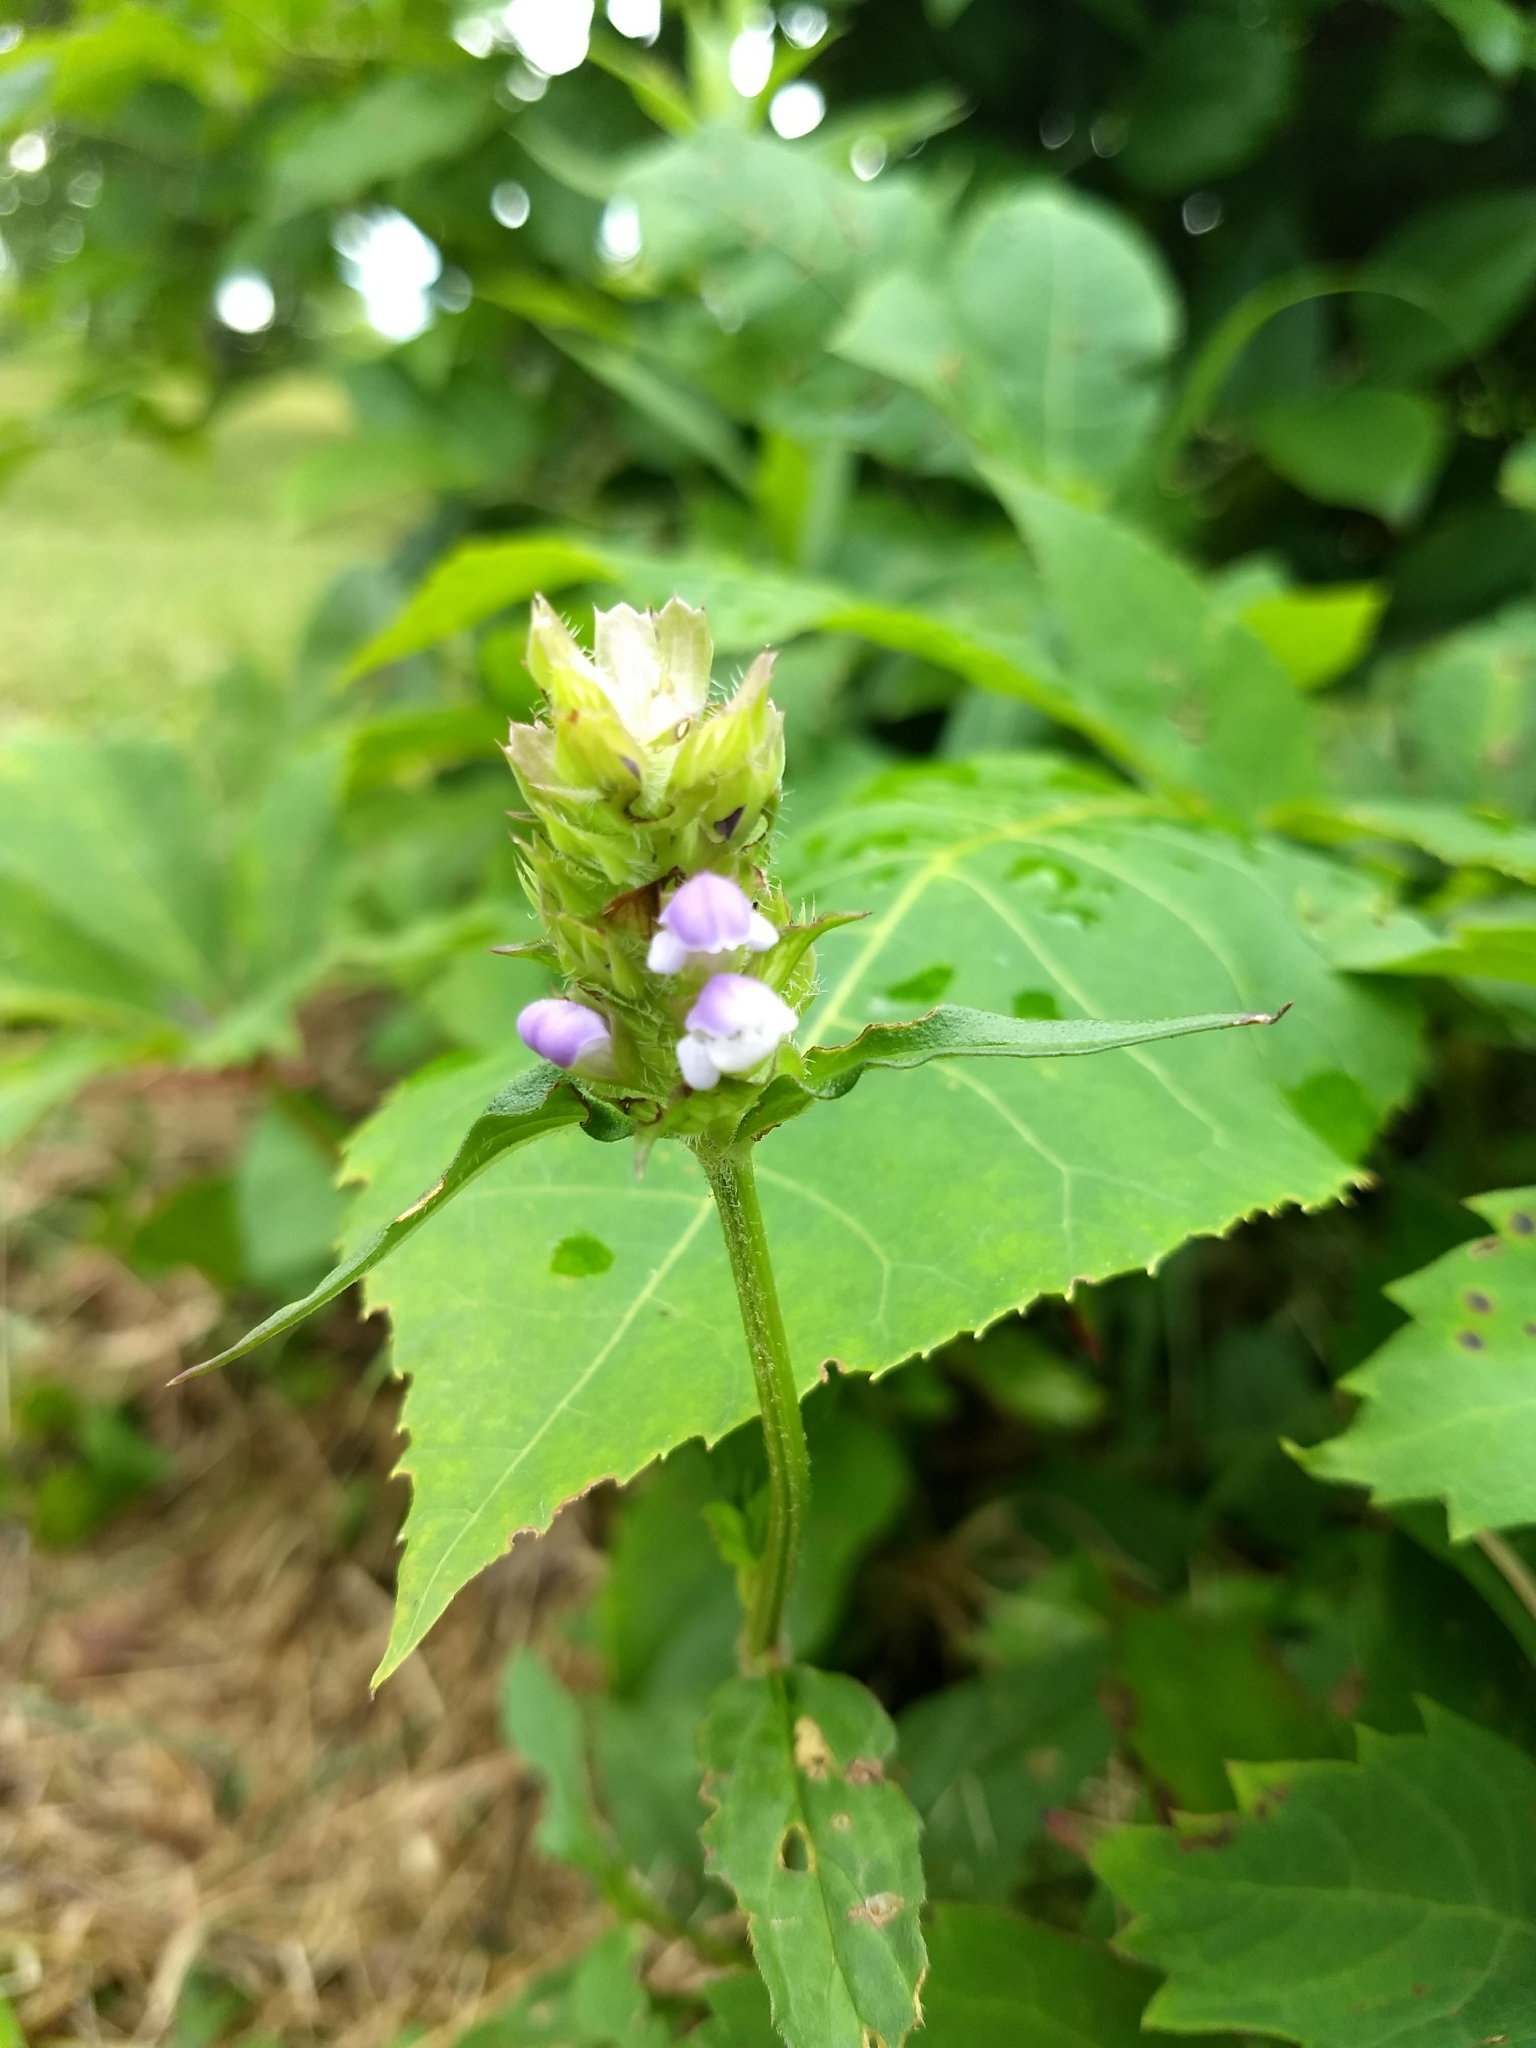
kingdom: Plantae
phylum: Tracheophyta
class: Magnoliopsida
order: Lamiales
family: Lamiaceae
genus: Prunella
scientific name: Prunella vulgaris
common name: Heal-all
